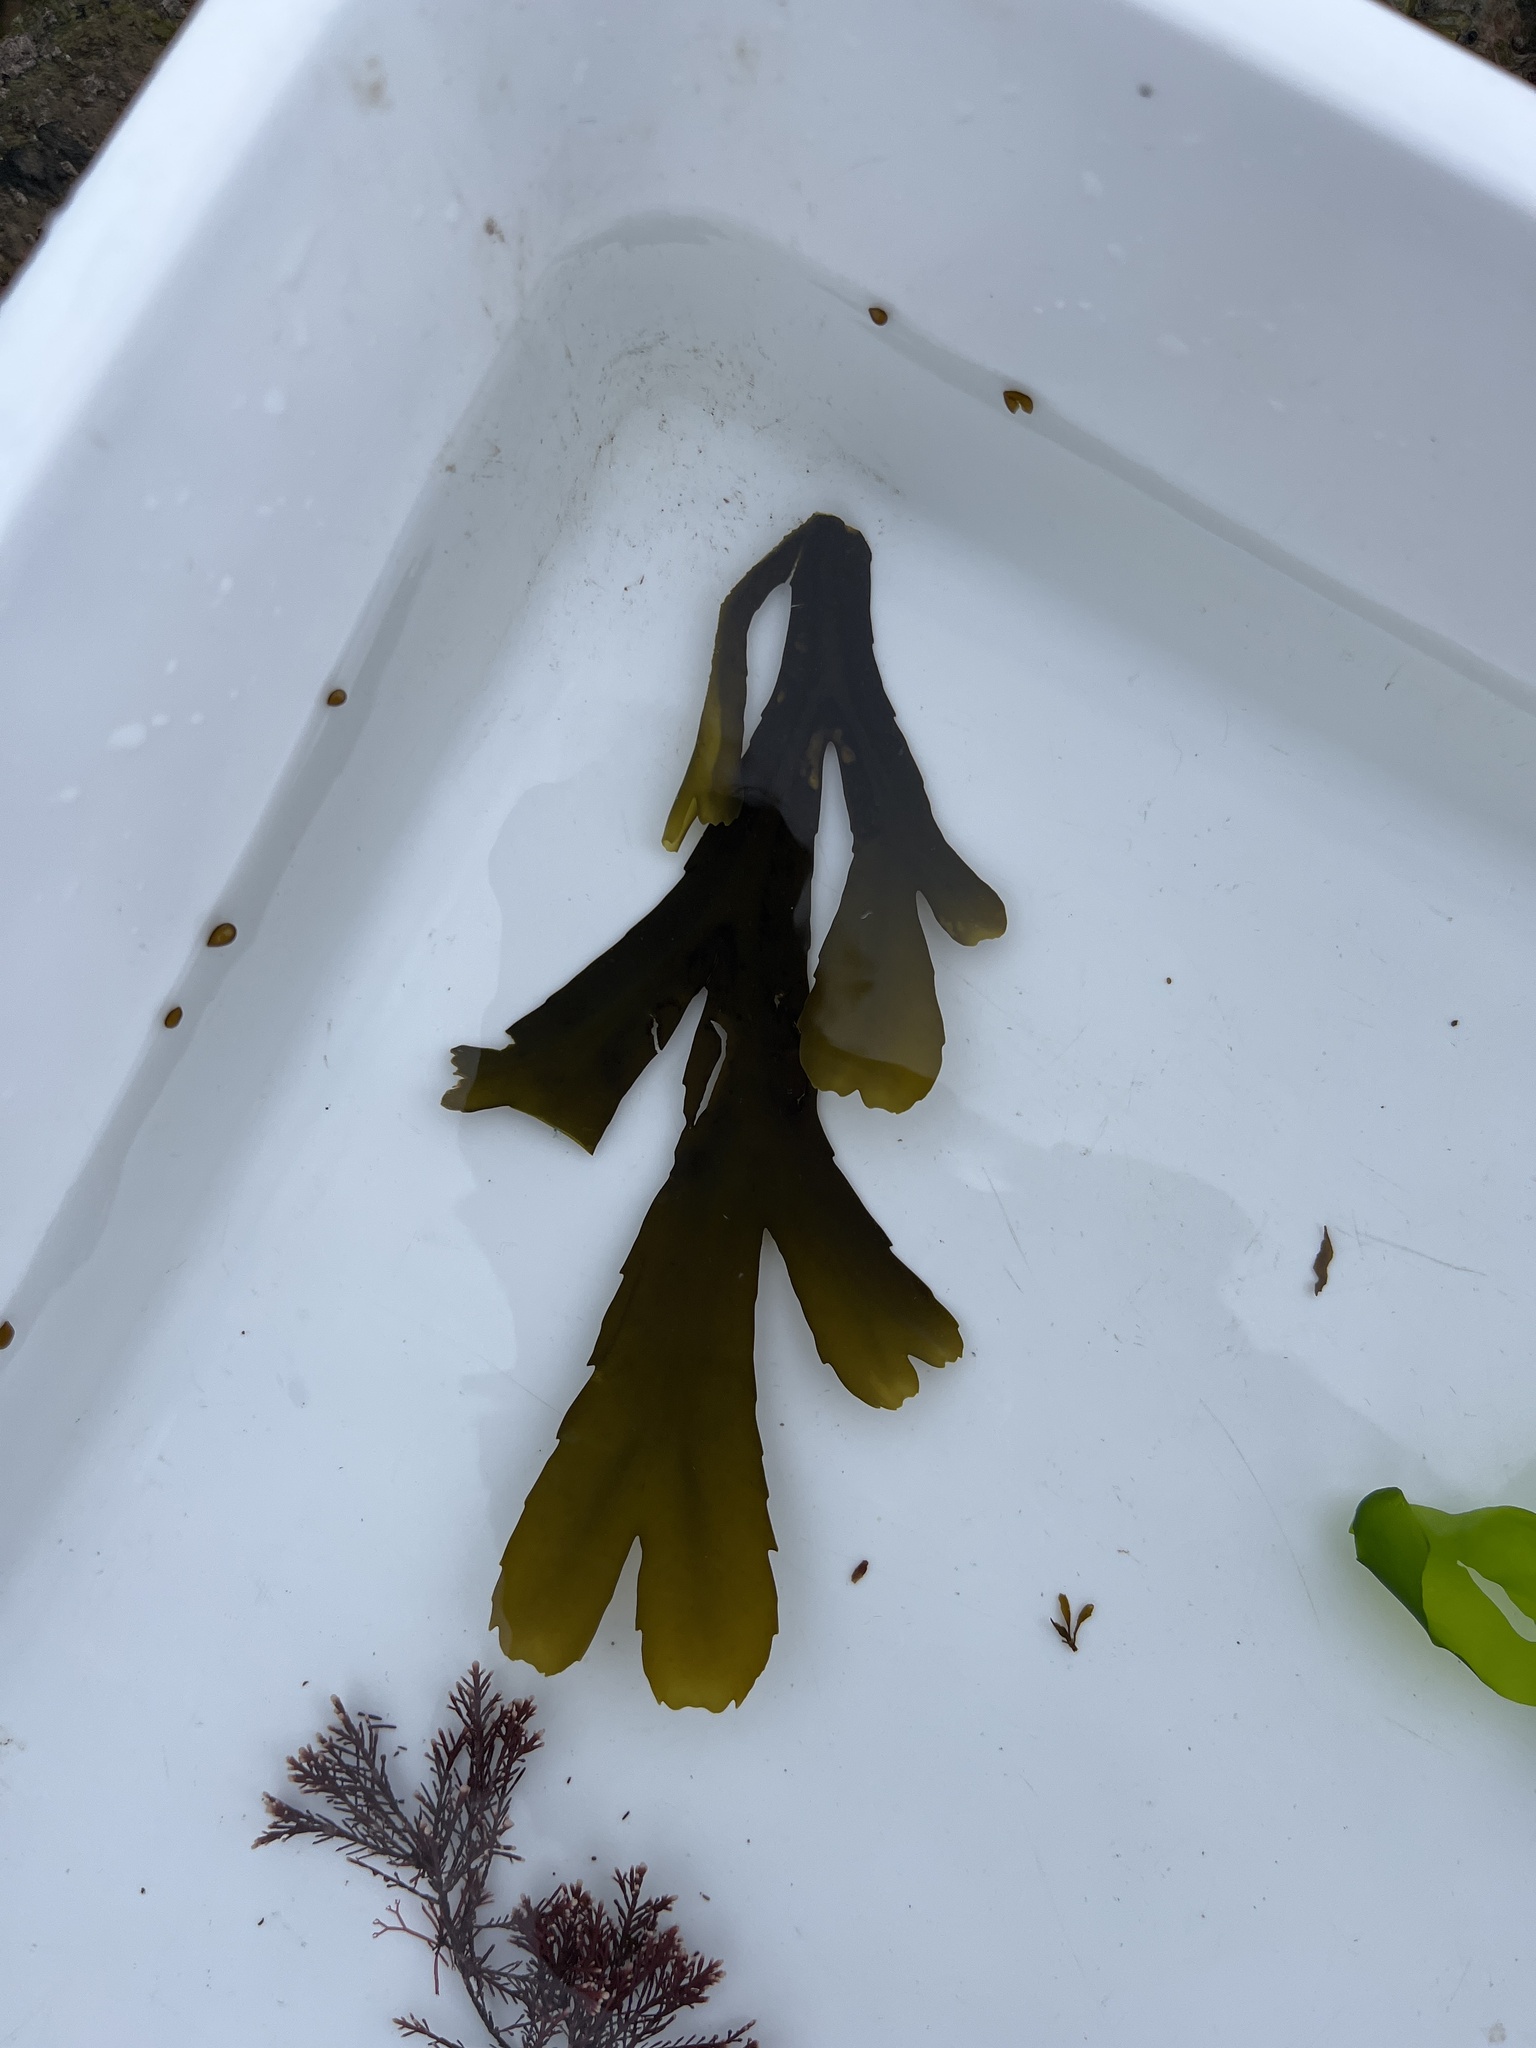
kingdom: Chromista
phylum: Ochrophyta
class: Phaeophyceae
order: Fucales
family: Fucaceae
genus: Fucus
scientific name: Fucus serratus
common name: Toothed wrack
